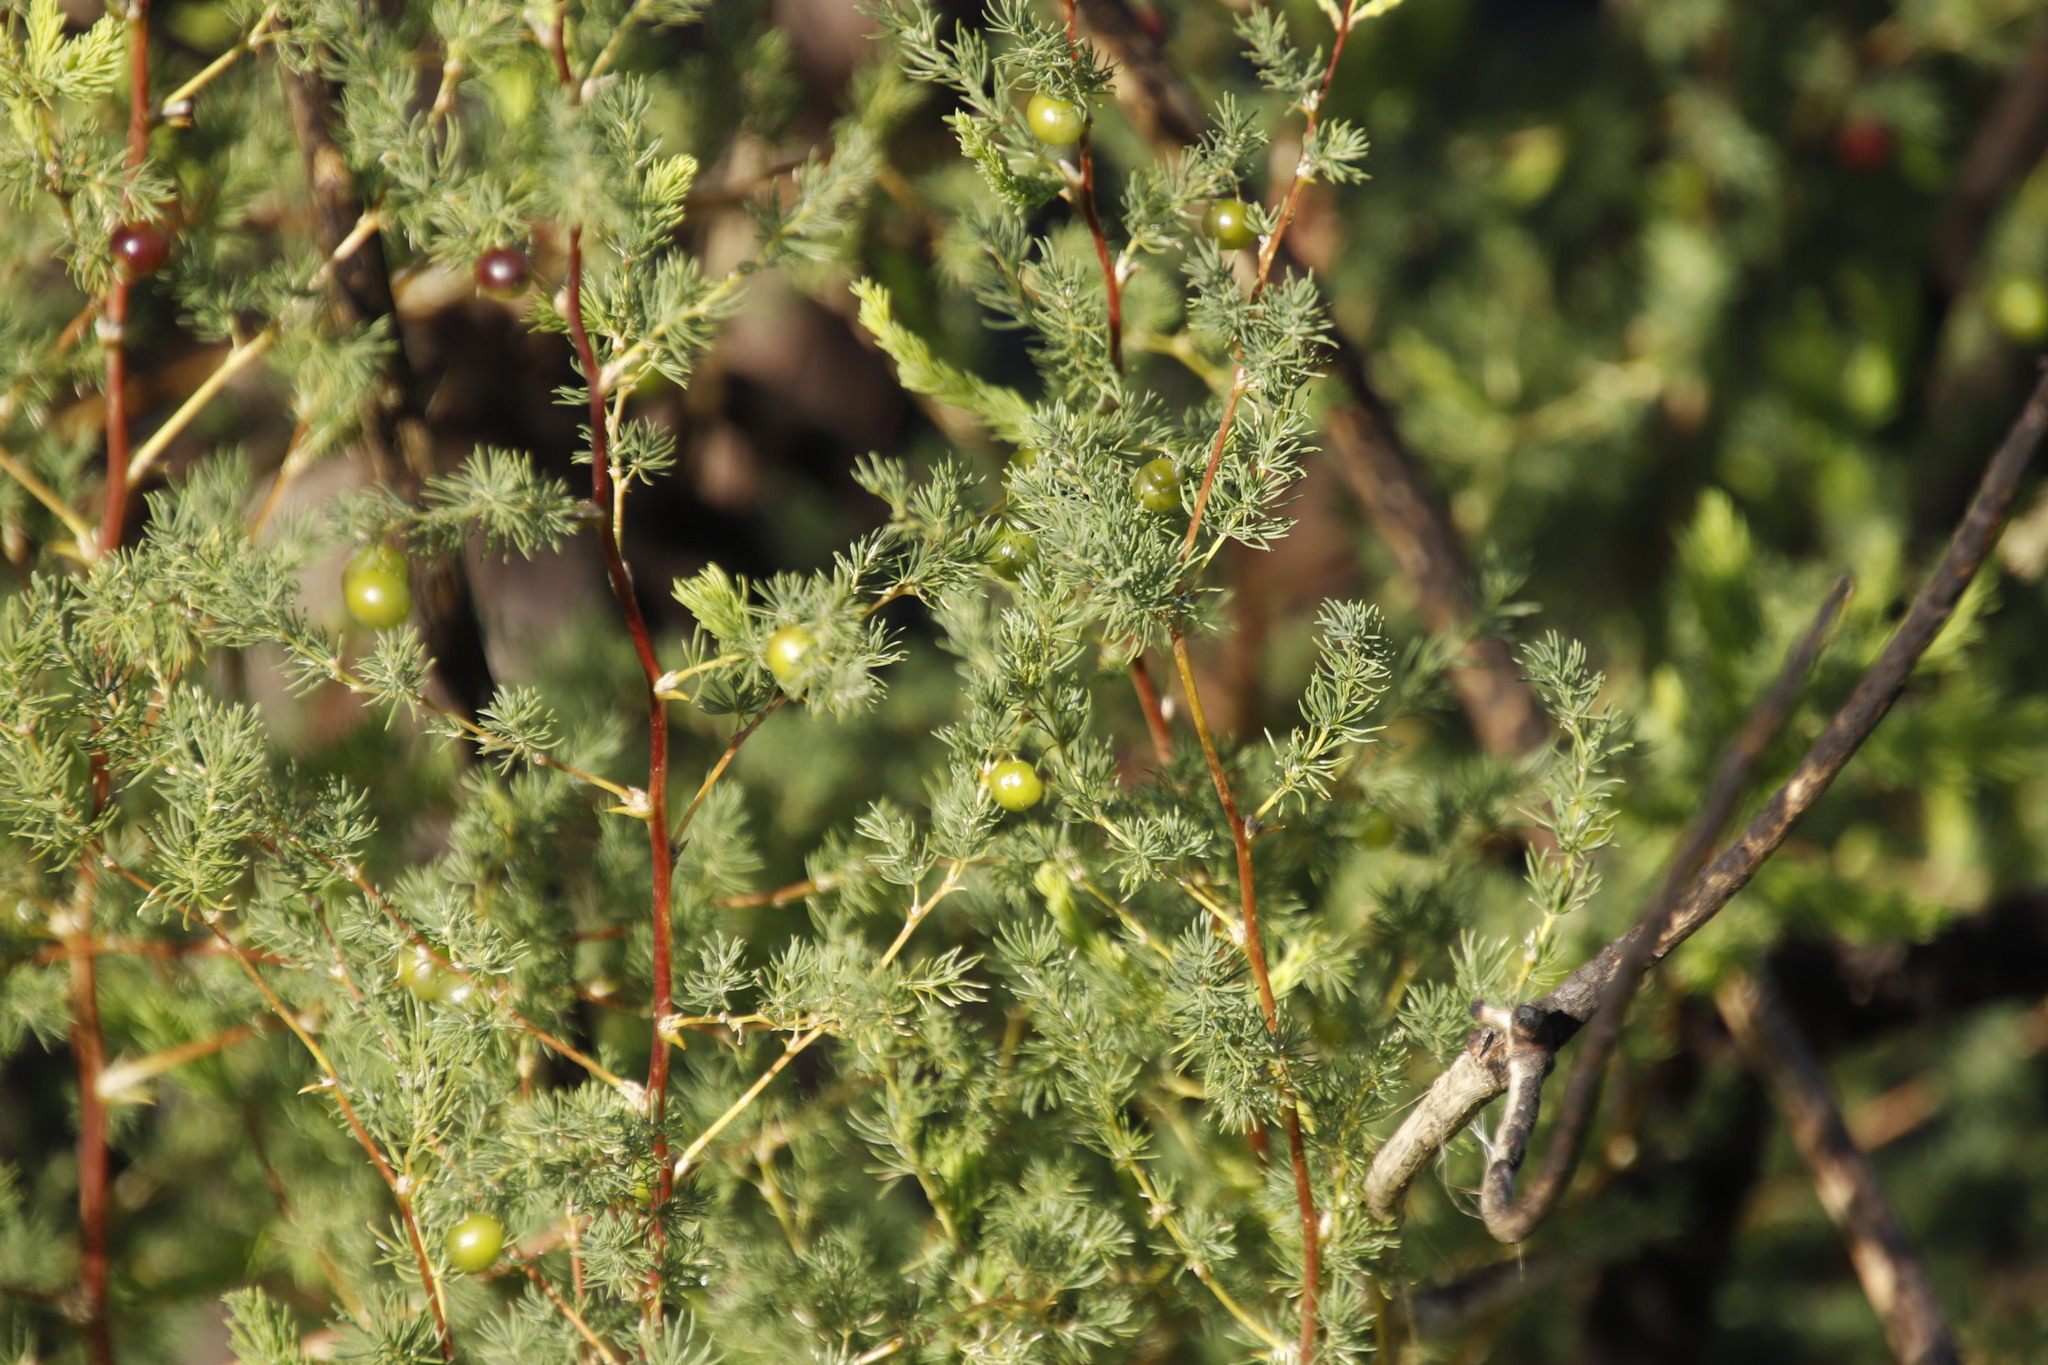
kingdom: Plantae
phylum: Tracheophyta
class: Liliopsida
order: Asparagales
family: Asparagaceae
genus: Asparagus
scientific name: Asparagus rubicundus
